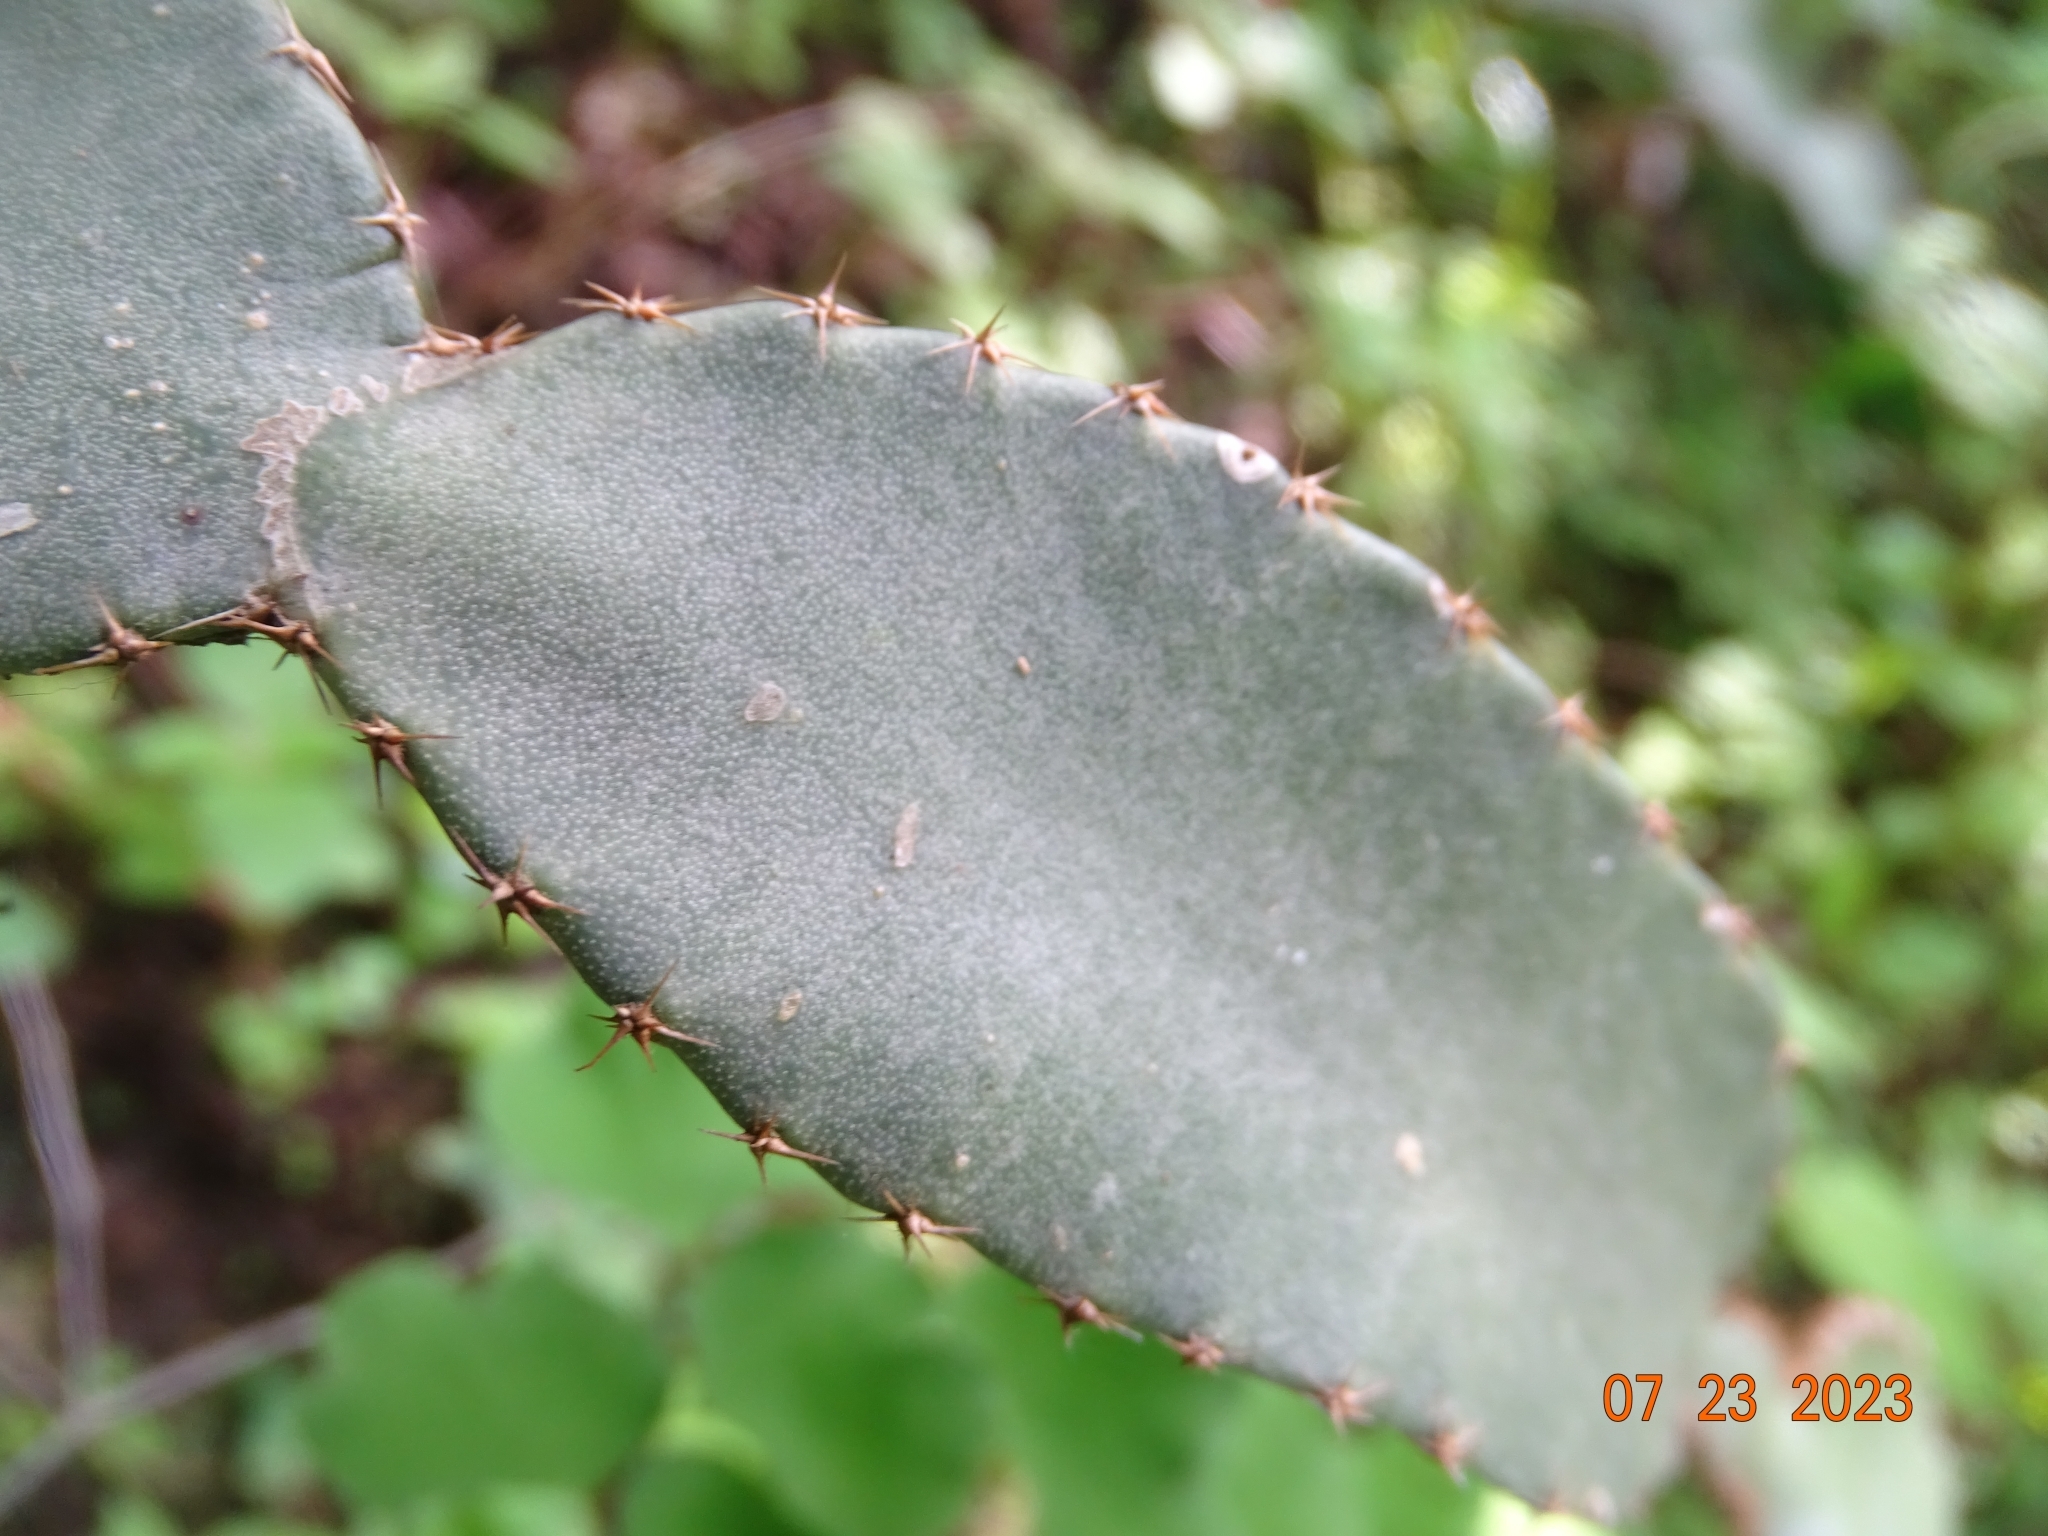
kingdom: Plantae
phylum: Tracheophyta
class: Magnoliopsida
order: Caryophyllales
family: Cactaceae
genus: Selenicereus
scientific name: Selenicereus ocamponis
